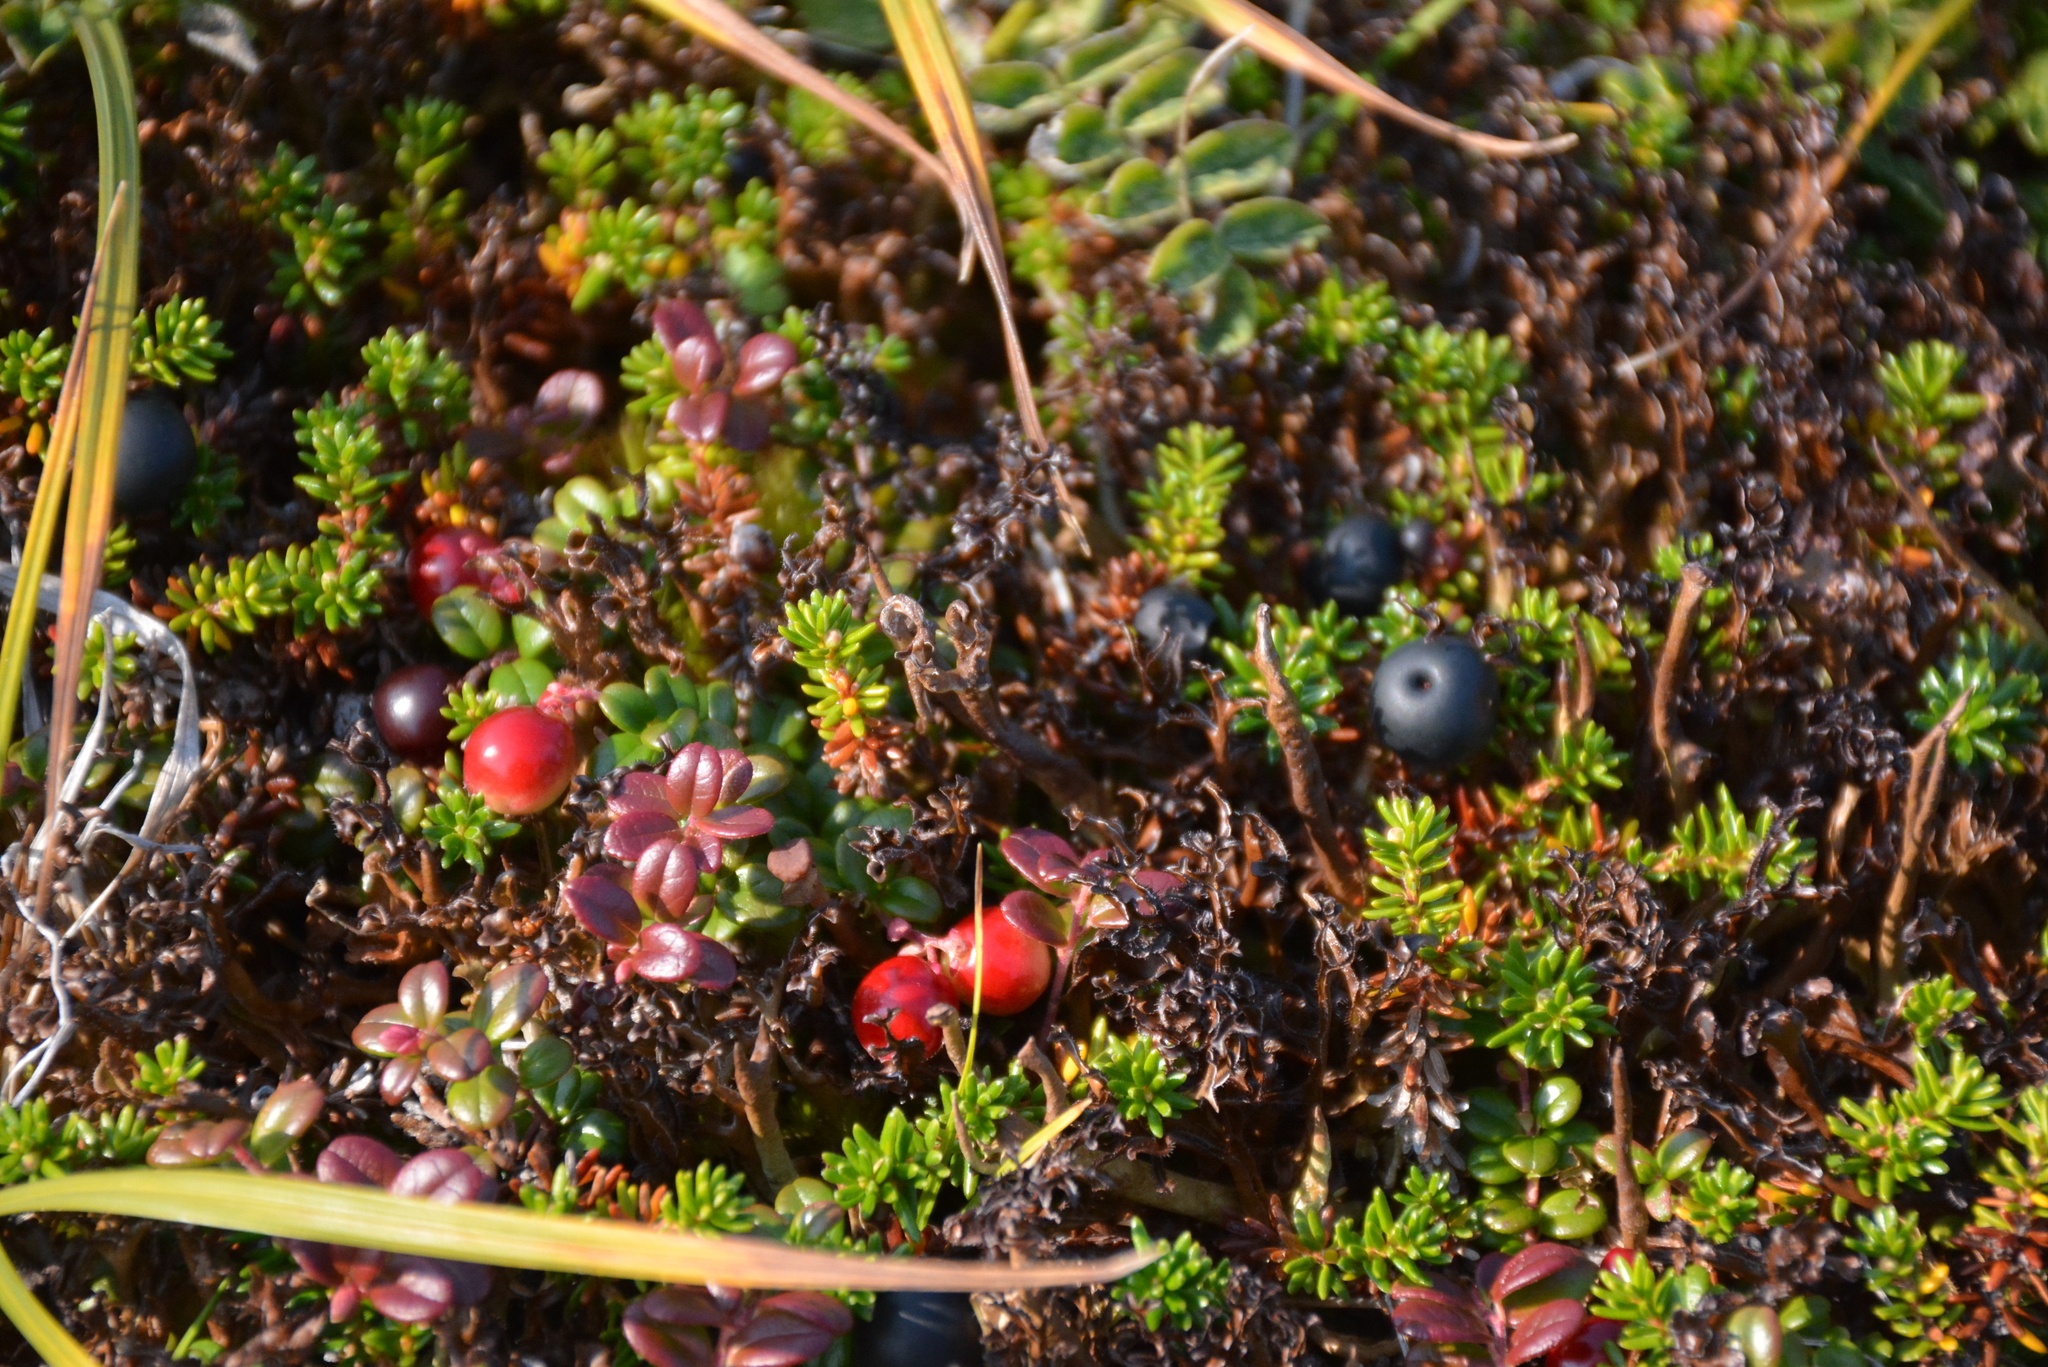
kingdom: Plantae
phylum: Tracheophyta
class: Magnoliopsida
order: Ericales
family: Ericaceae
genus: Vaccinium
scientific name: Vaccinium vitis-idaea
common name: Cowberry
